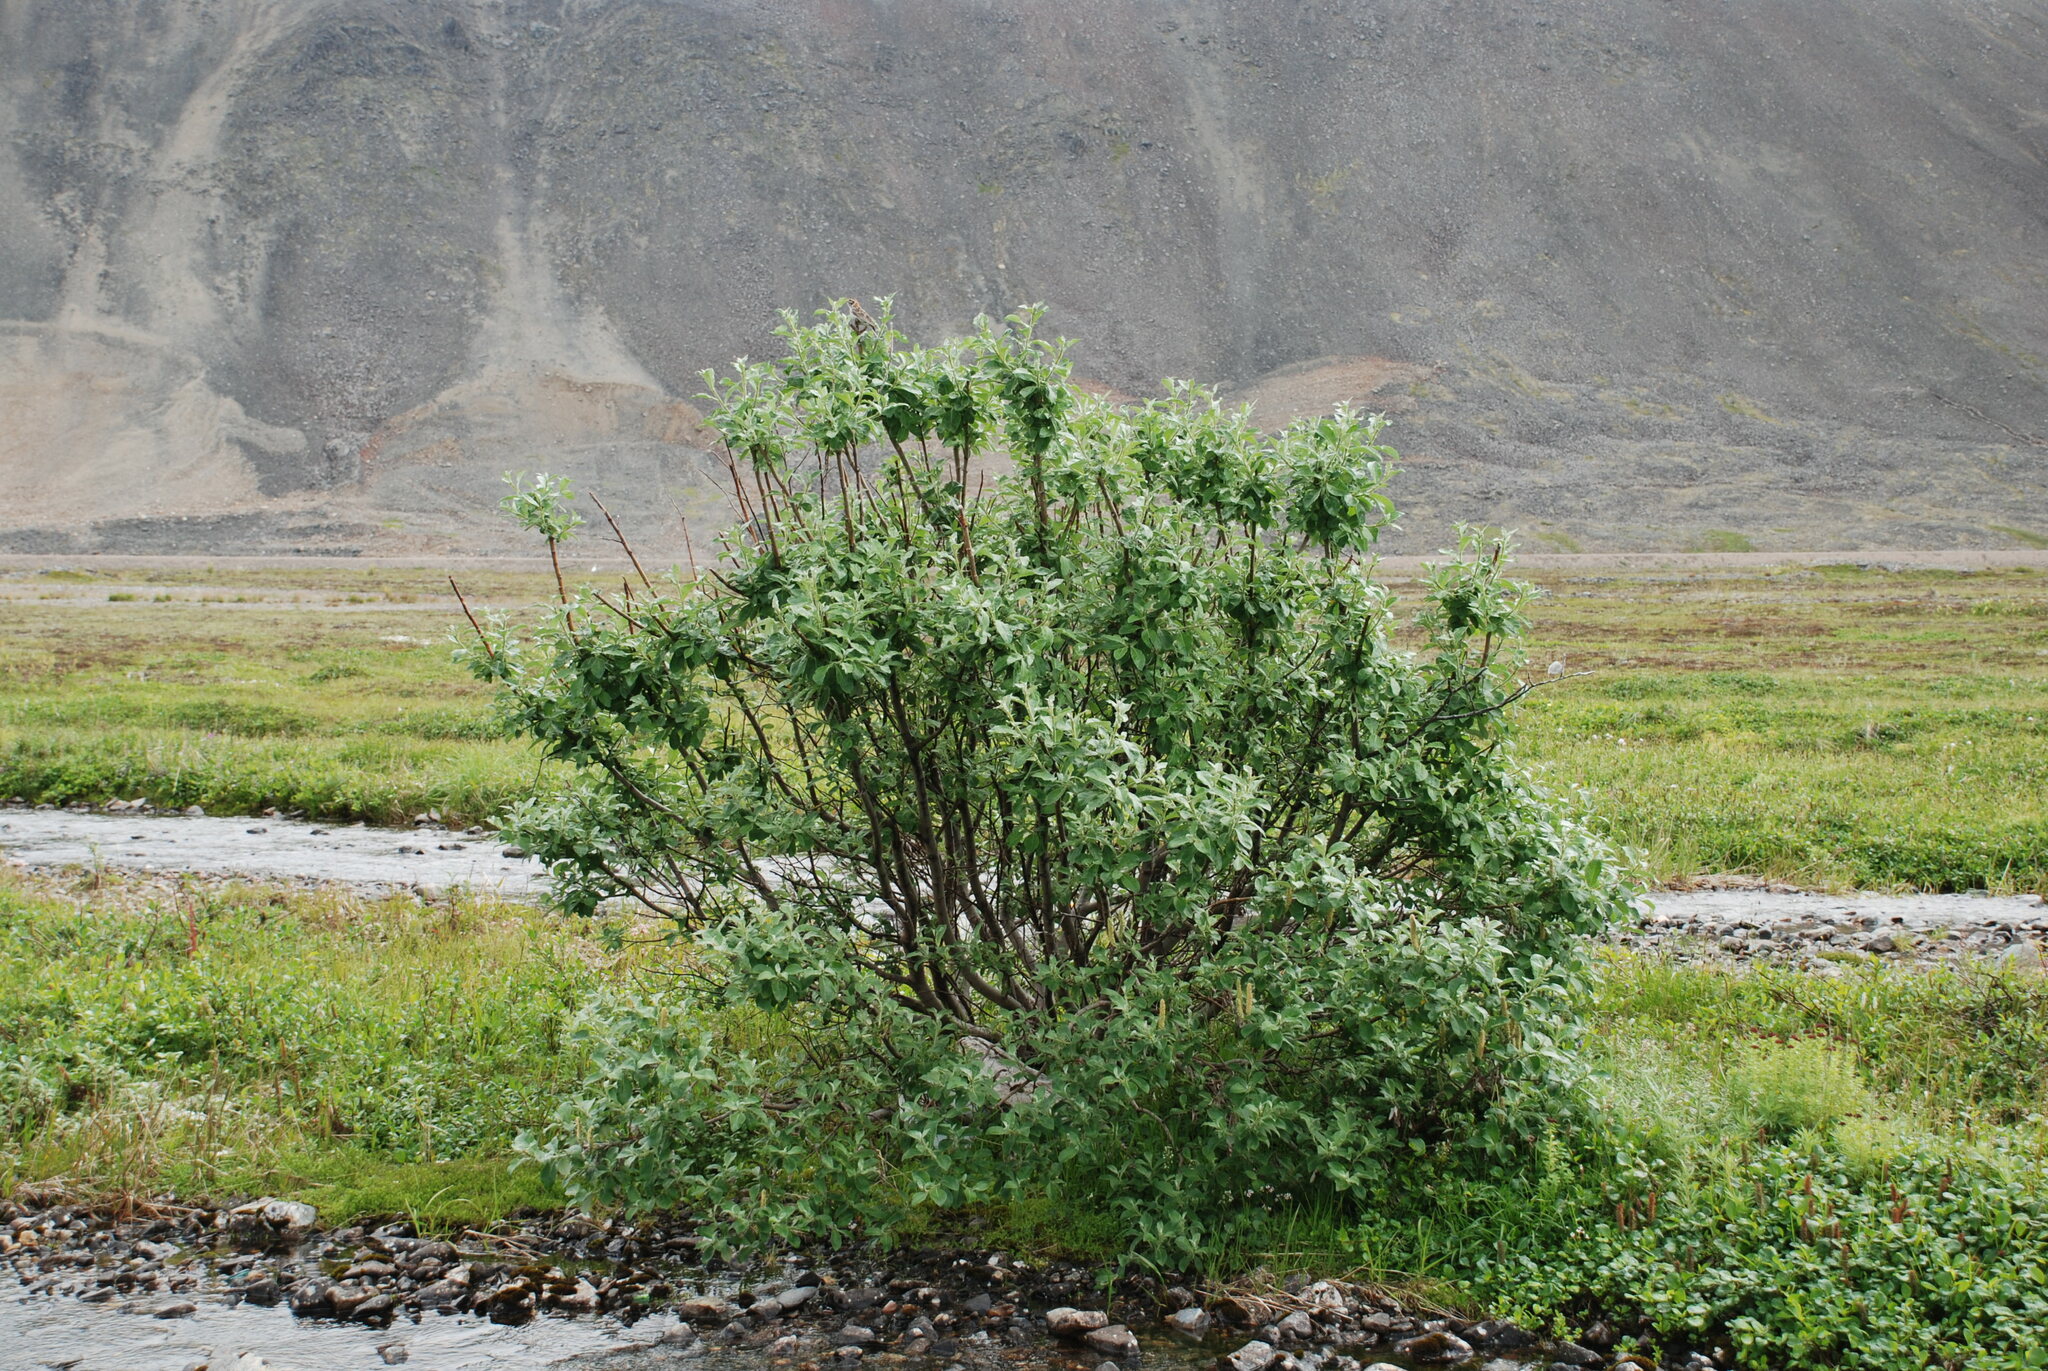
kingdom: Plantae
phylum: Tracheophyta
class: Magnoliopsida
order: Malpighiales
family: Salicaceae
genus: Salix
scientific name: Salix alaxensis
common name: Feltleaf willow
